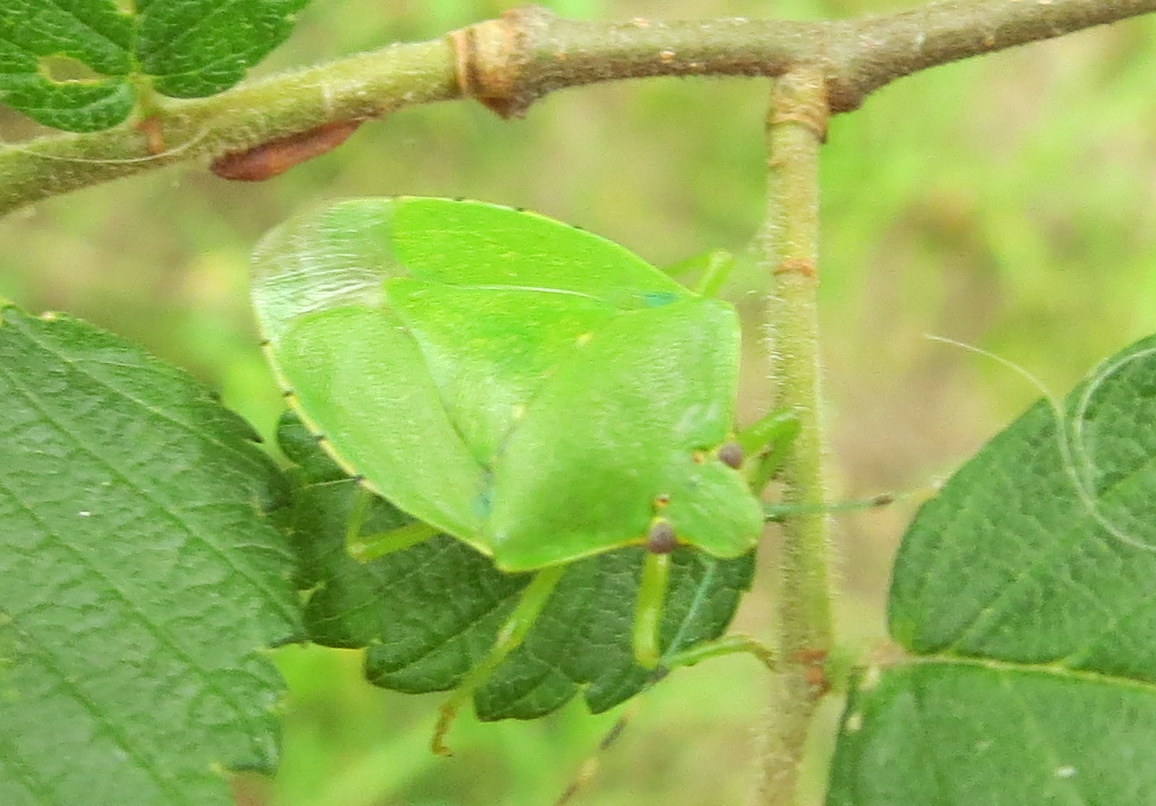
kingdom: Animalia
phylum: Arthropoda
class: Insecta
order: Hemiptera
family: Pentatomidae
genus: Chinavia
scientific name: Chinavia hilaris
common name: Green stink bug
